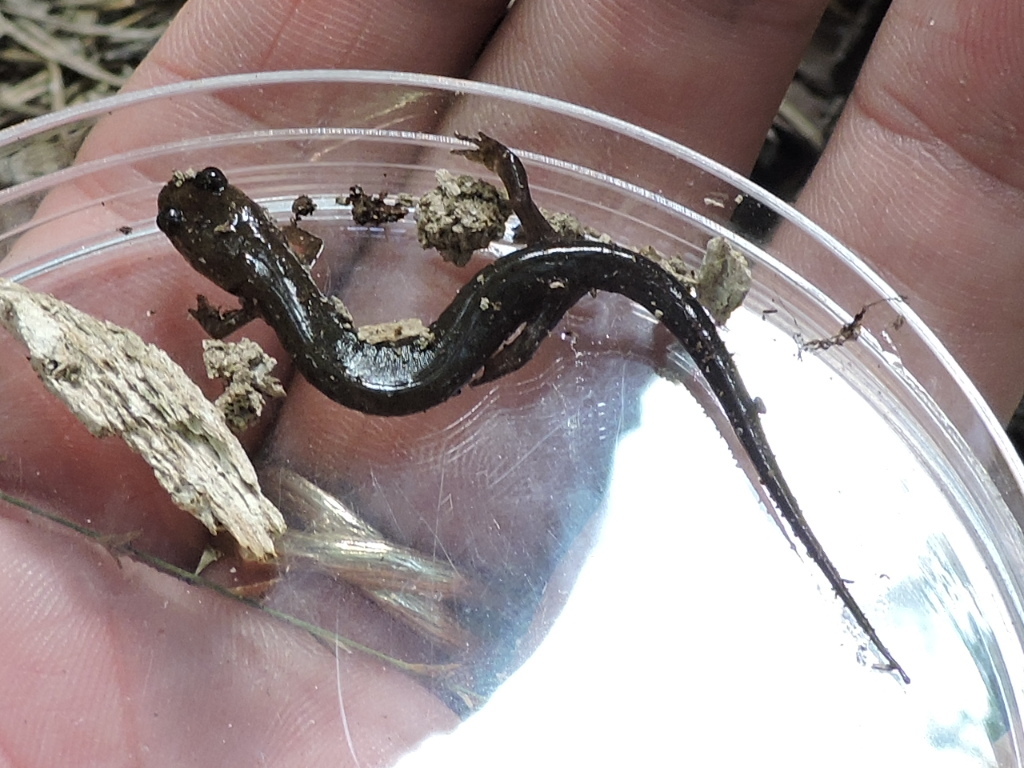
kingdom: Animalia
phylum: Chordata
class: Amphibia
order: Caudata
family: Plethodontidae
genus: Desmognathus
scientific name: Desmognathus
